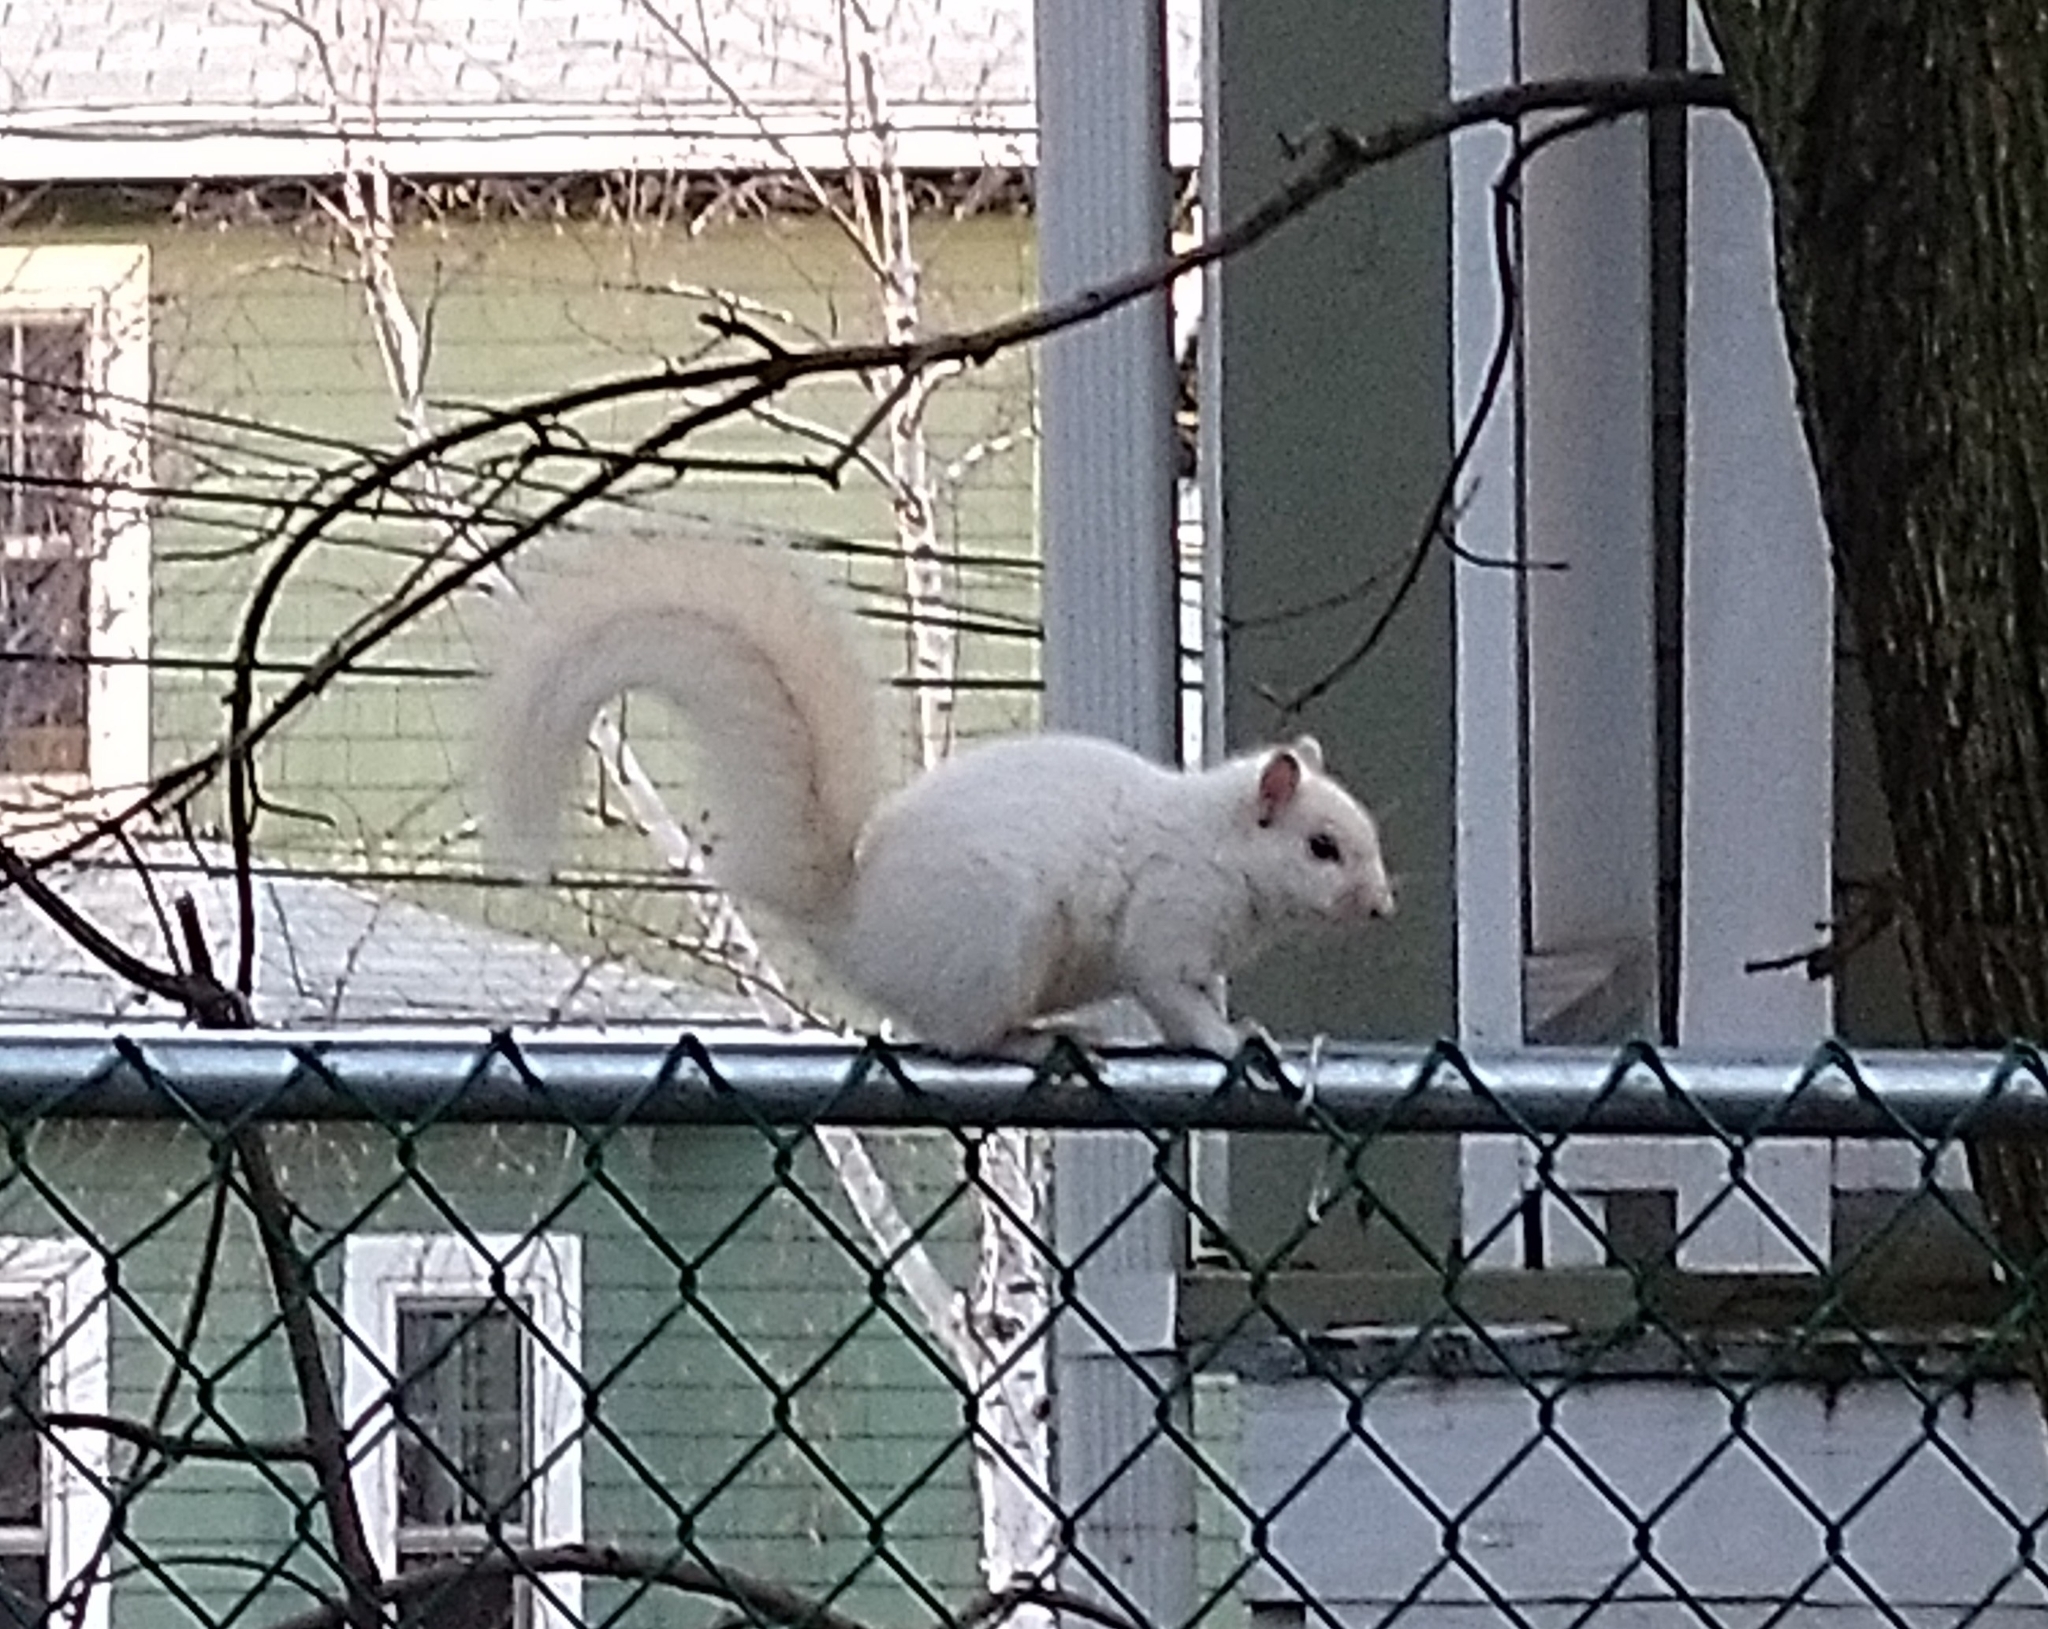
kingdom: Animalia
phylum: Chordata
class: Mammalia
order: Rodentia
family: Sciuridae
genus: Sciurus
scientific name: Sciurus carolinensis
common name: Eastern gray squirrel
